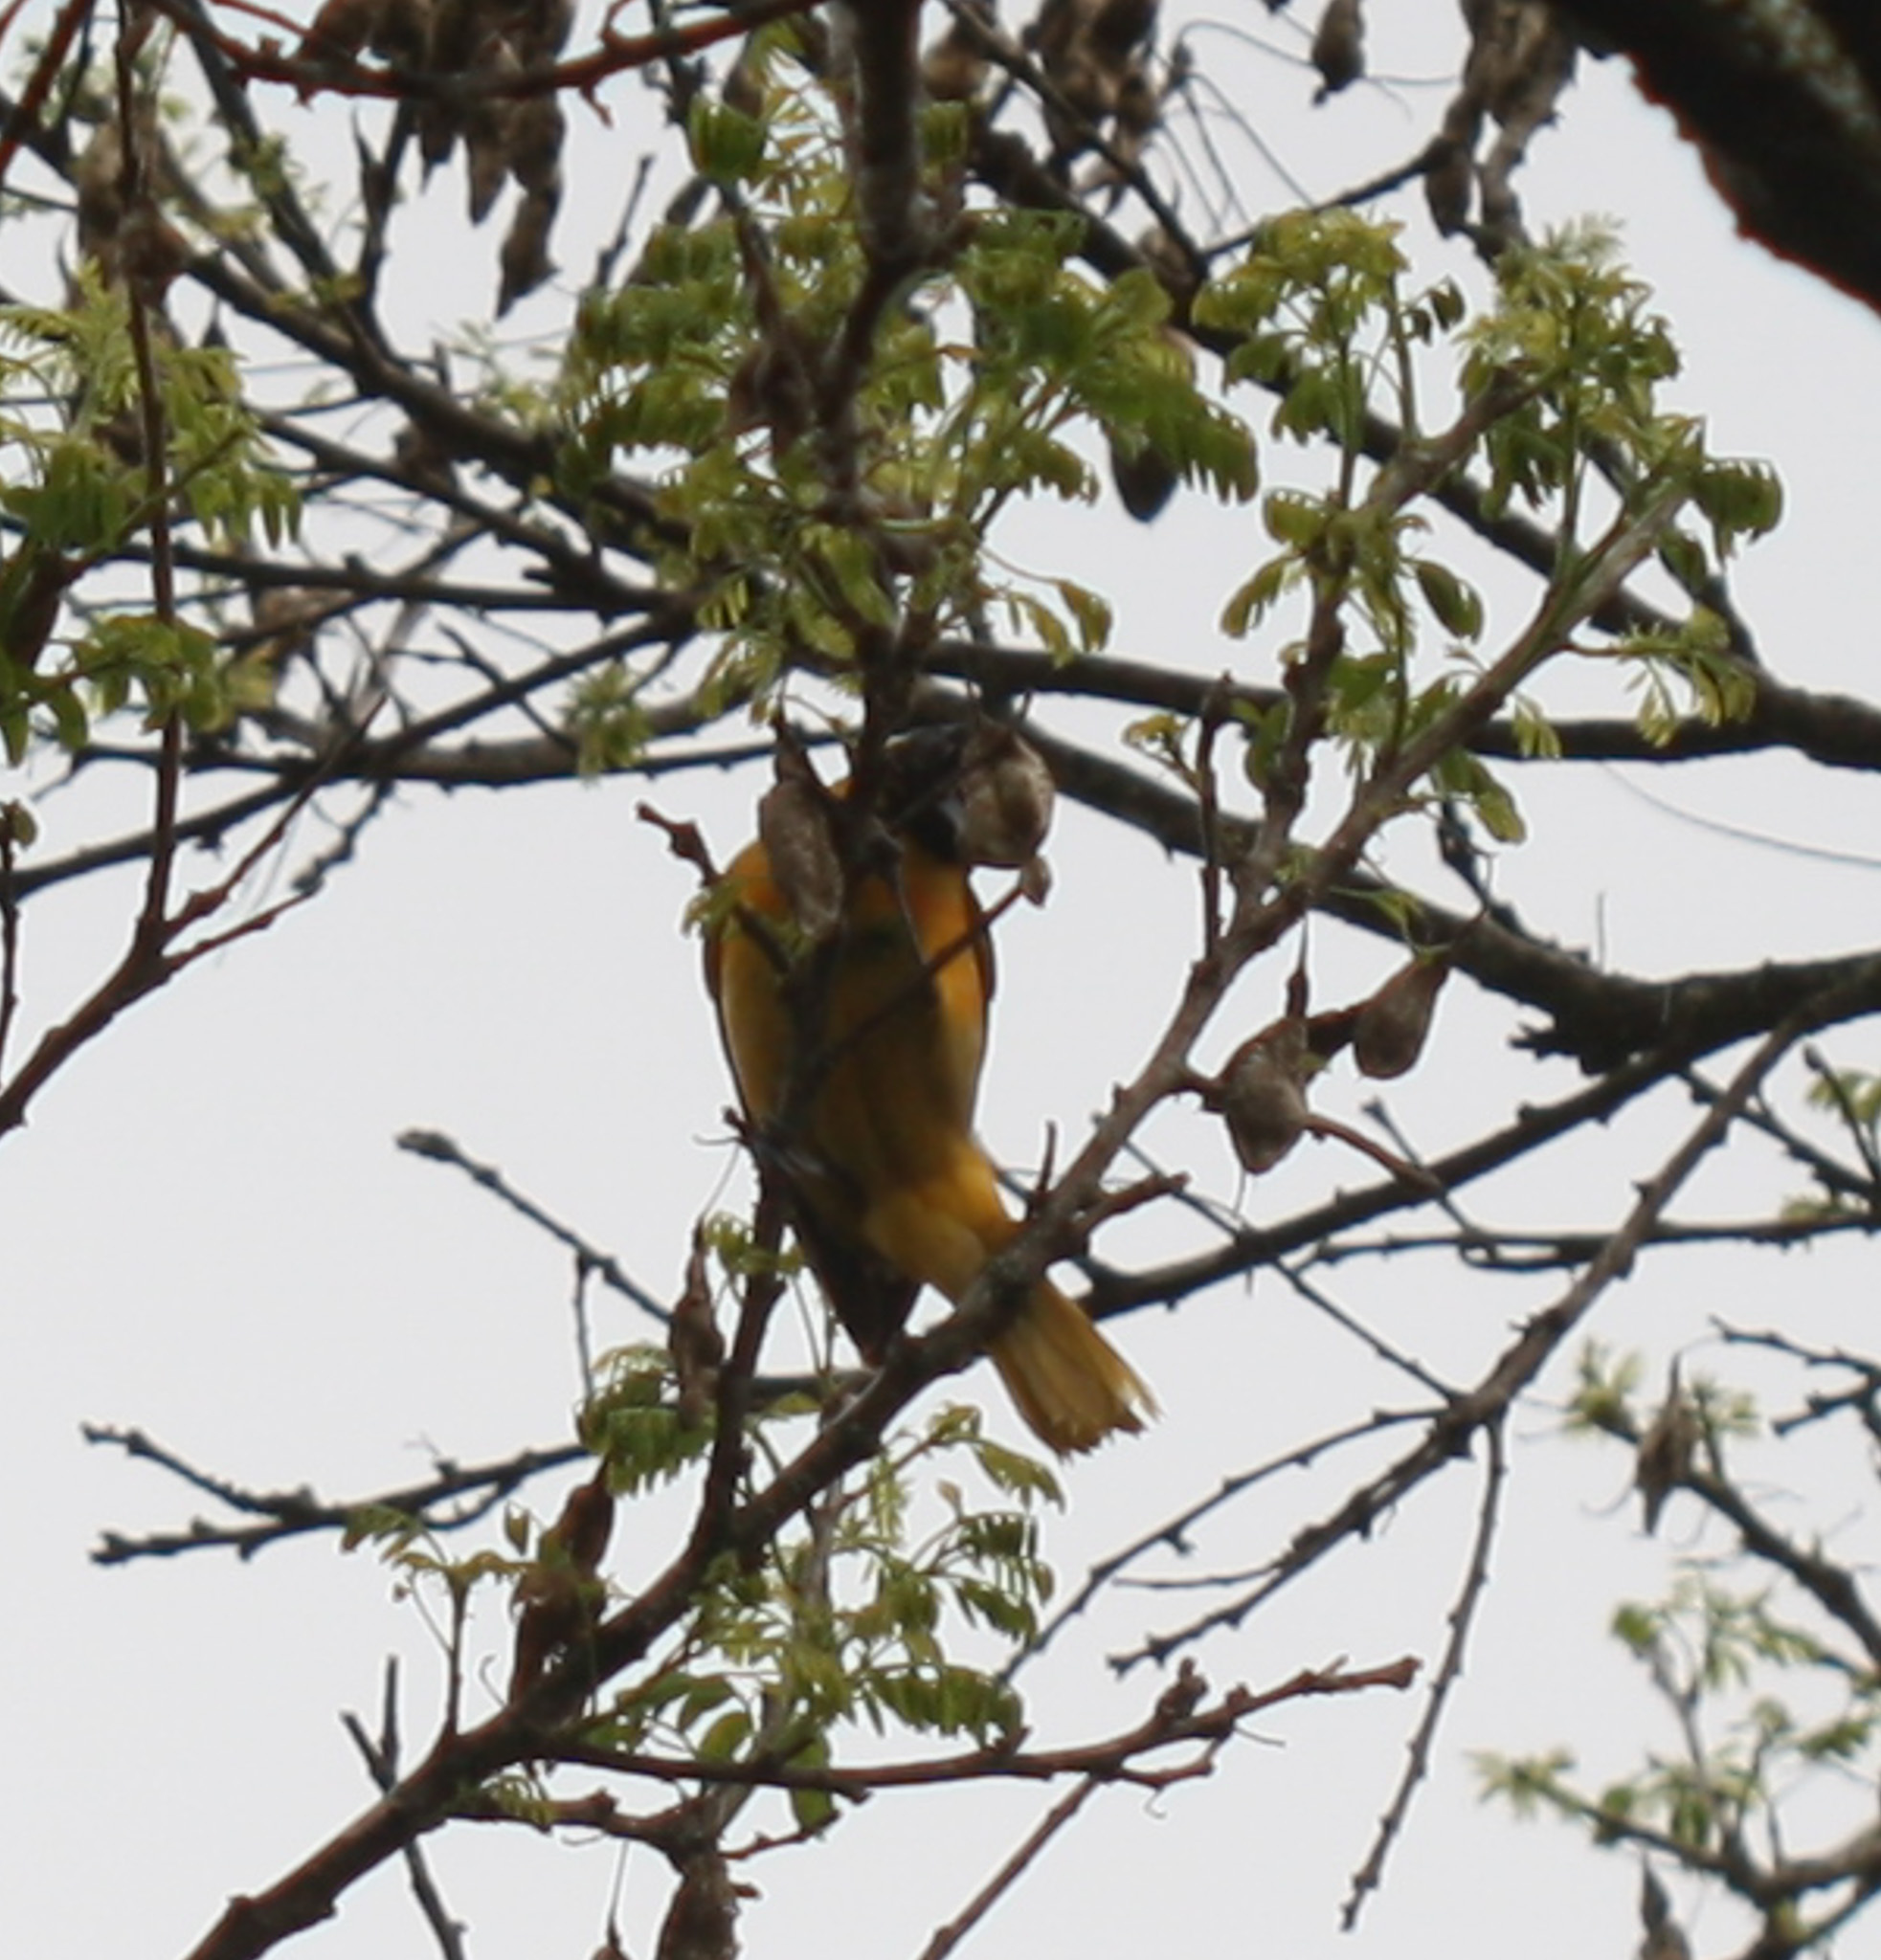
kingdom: Animalia
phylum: Chordata
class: Aves
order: Passeriformes
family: Icteridae
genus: Icterus
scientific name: Icterus galbula
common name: Baltimore oriole
